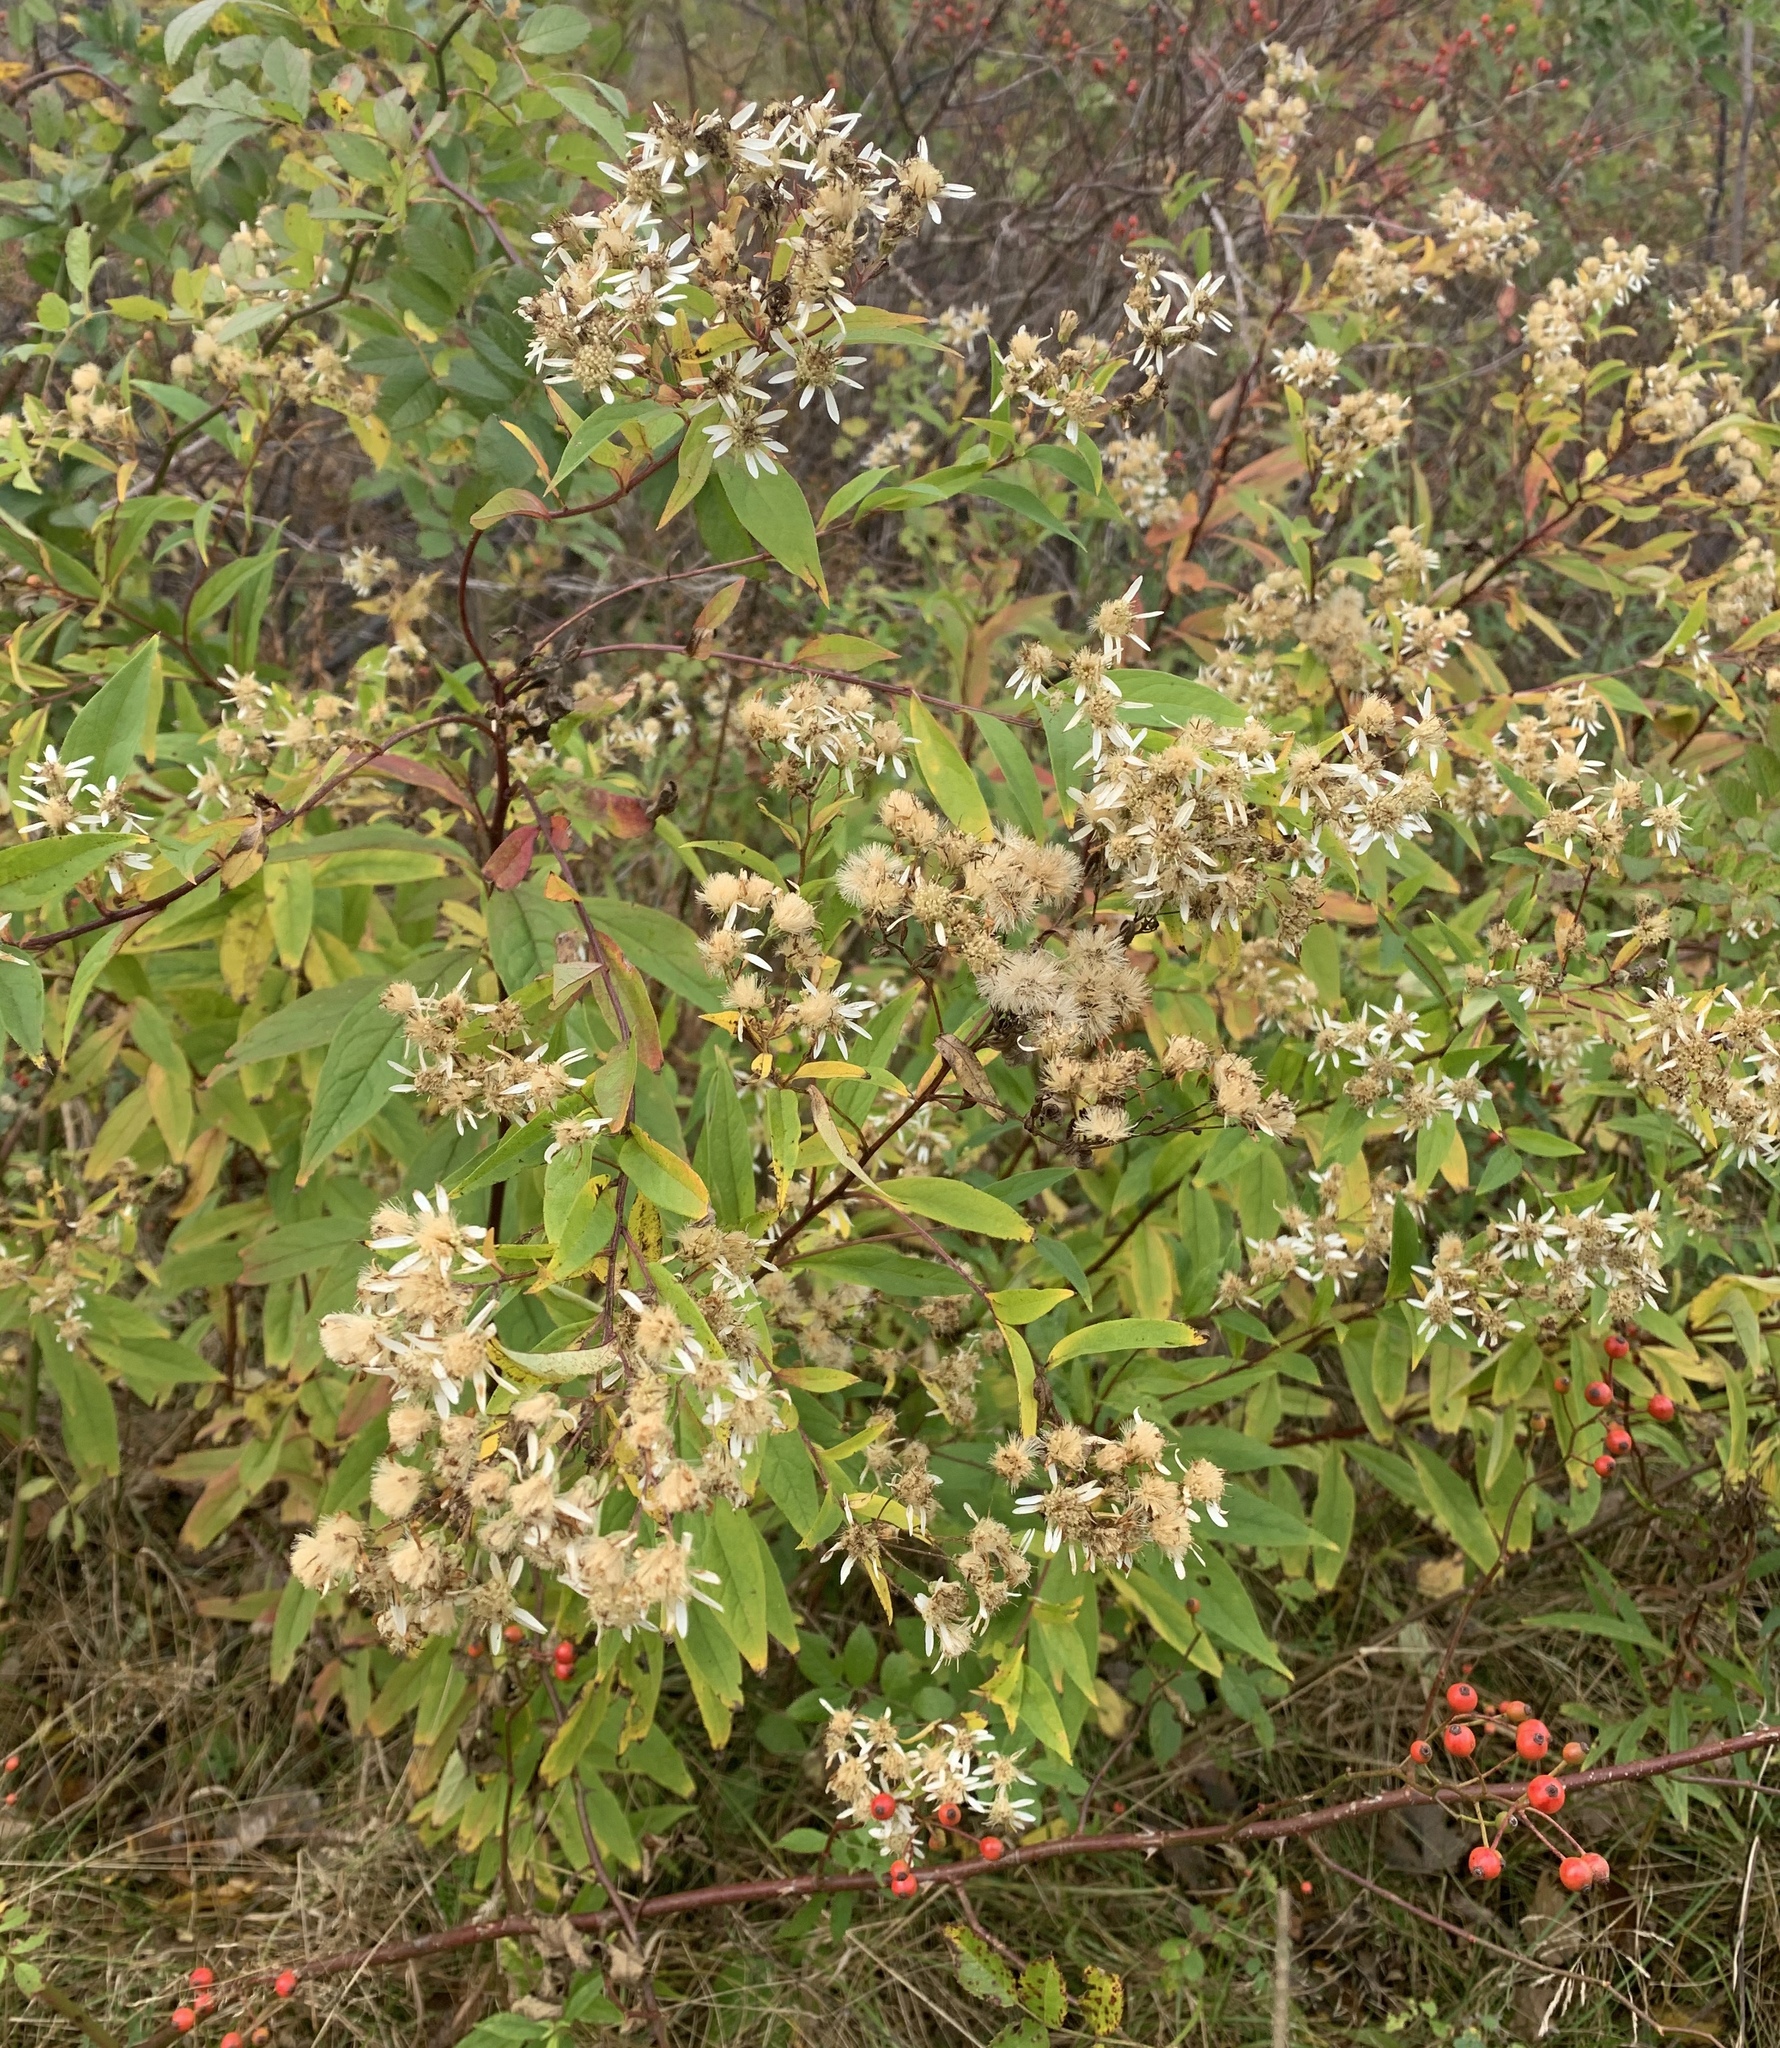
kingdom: Plantae
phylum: Tracheophyta
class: Magnoliopsida
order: Asterales
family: Asteraceae
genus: Doellingeria
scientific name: Doellingeria umbellata
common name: Flat-top white aster
